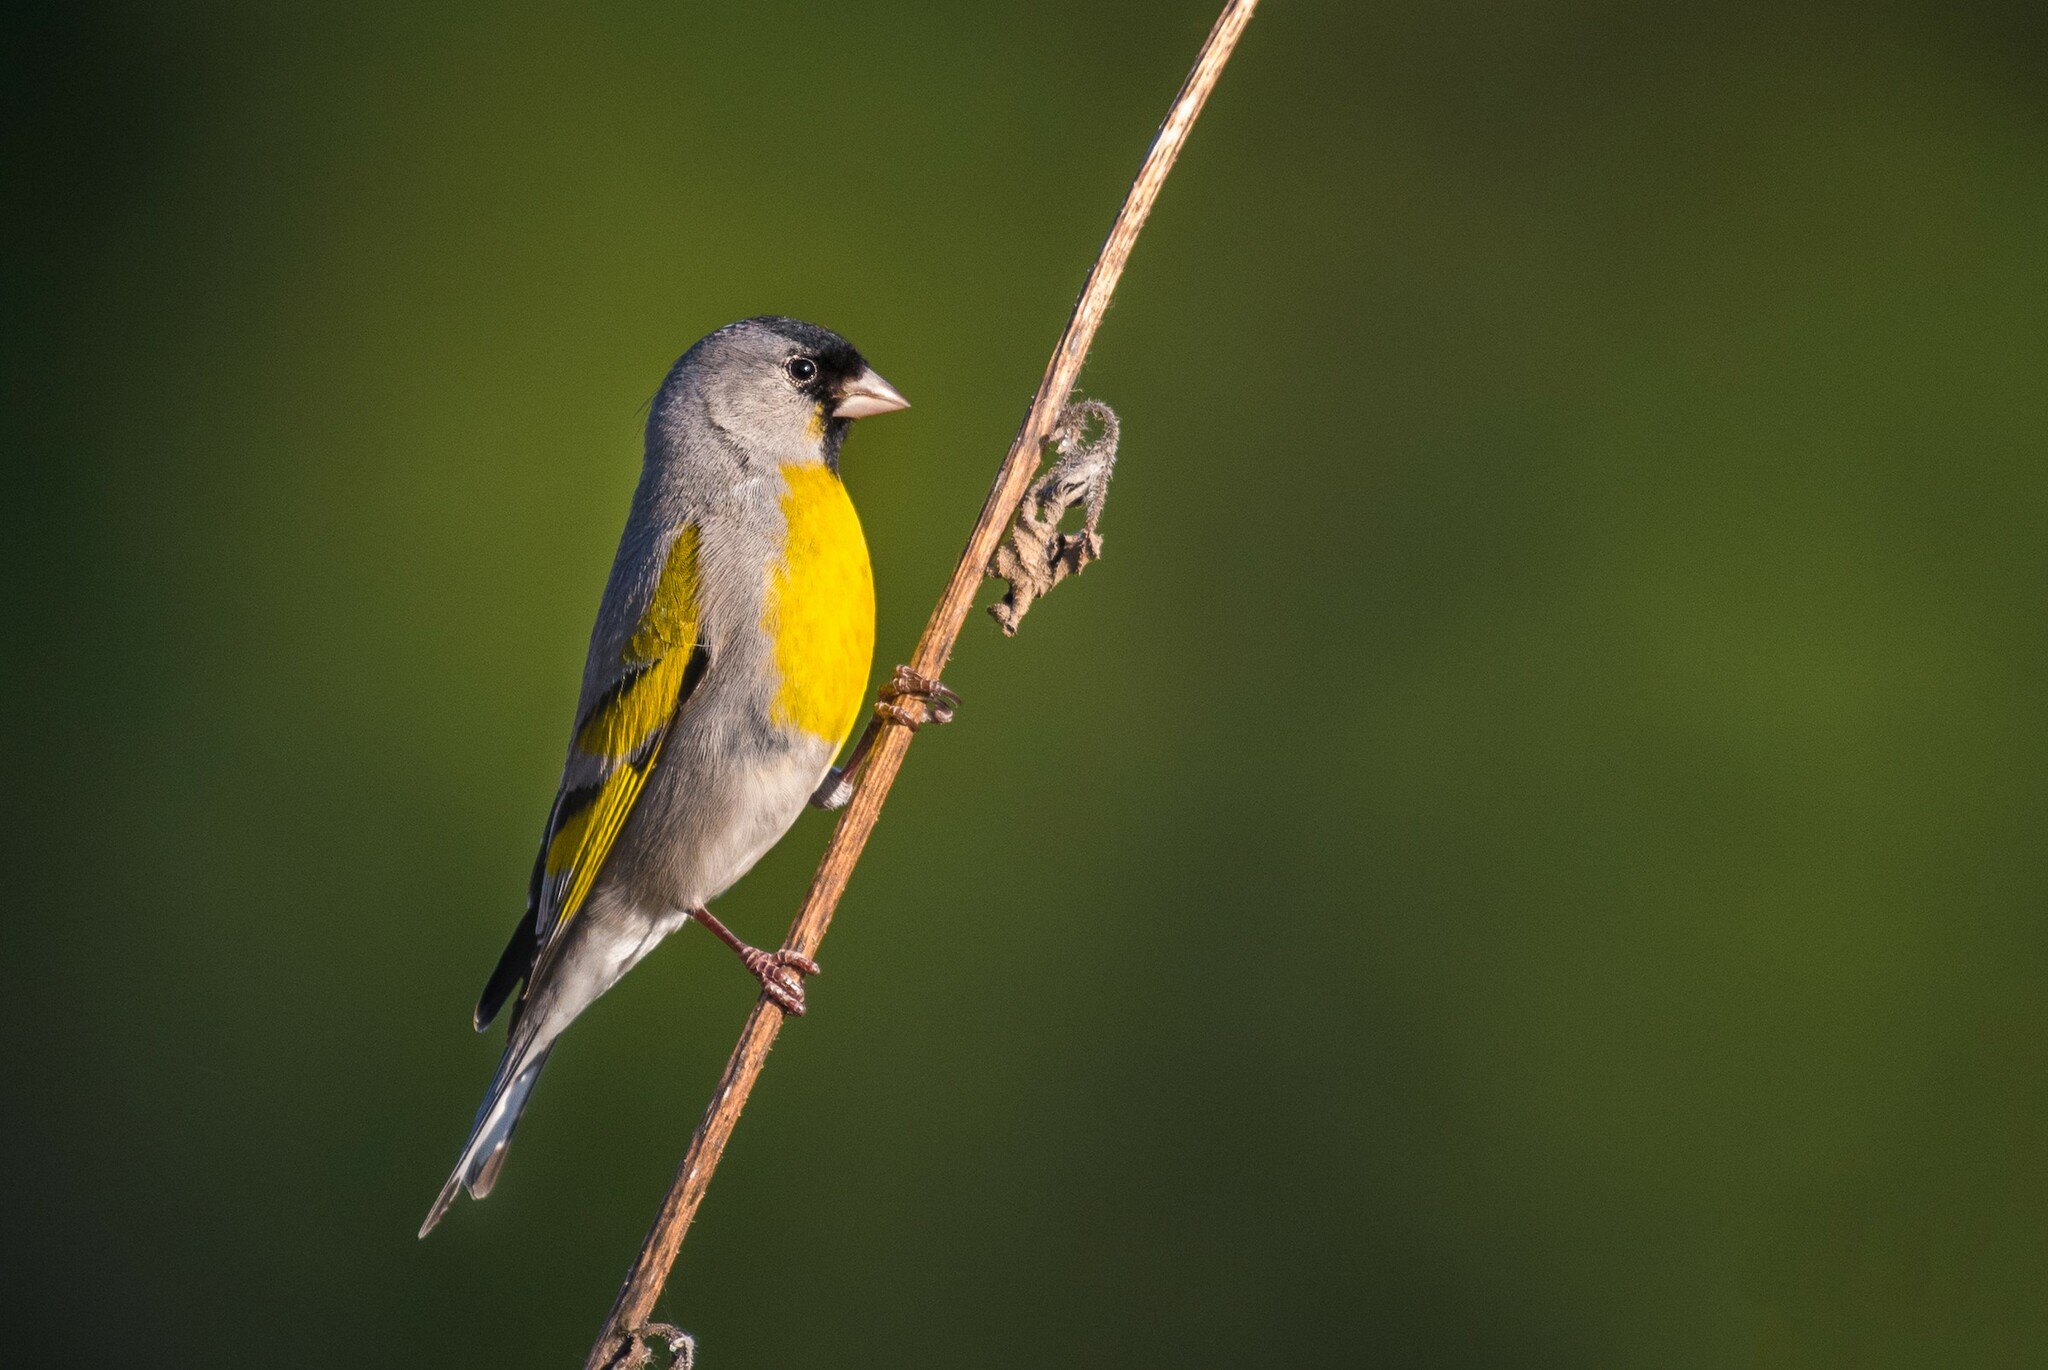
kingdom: Animalia
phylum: Chordata
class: Aves
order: Passeriformes
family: Fringillidae
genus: Spinus
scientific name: Spinus lawrencei
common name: Lawrence's goldfinch
